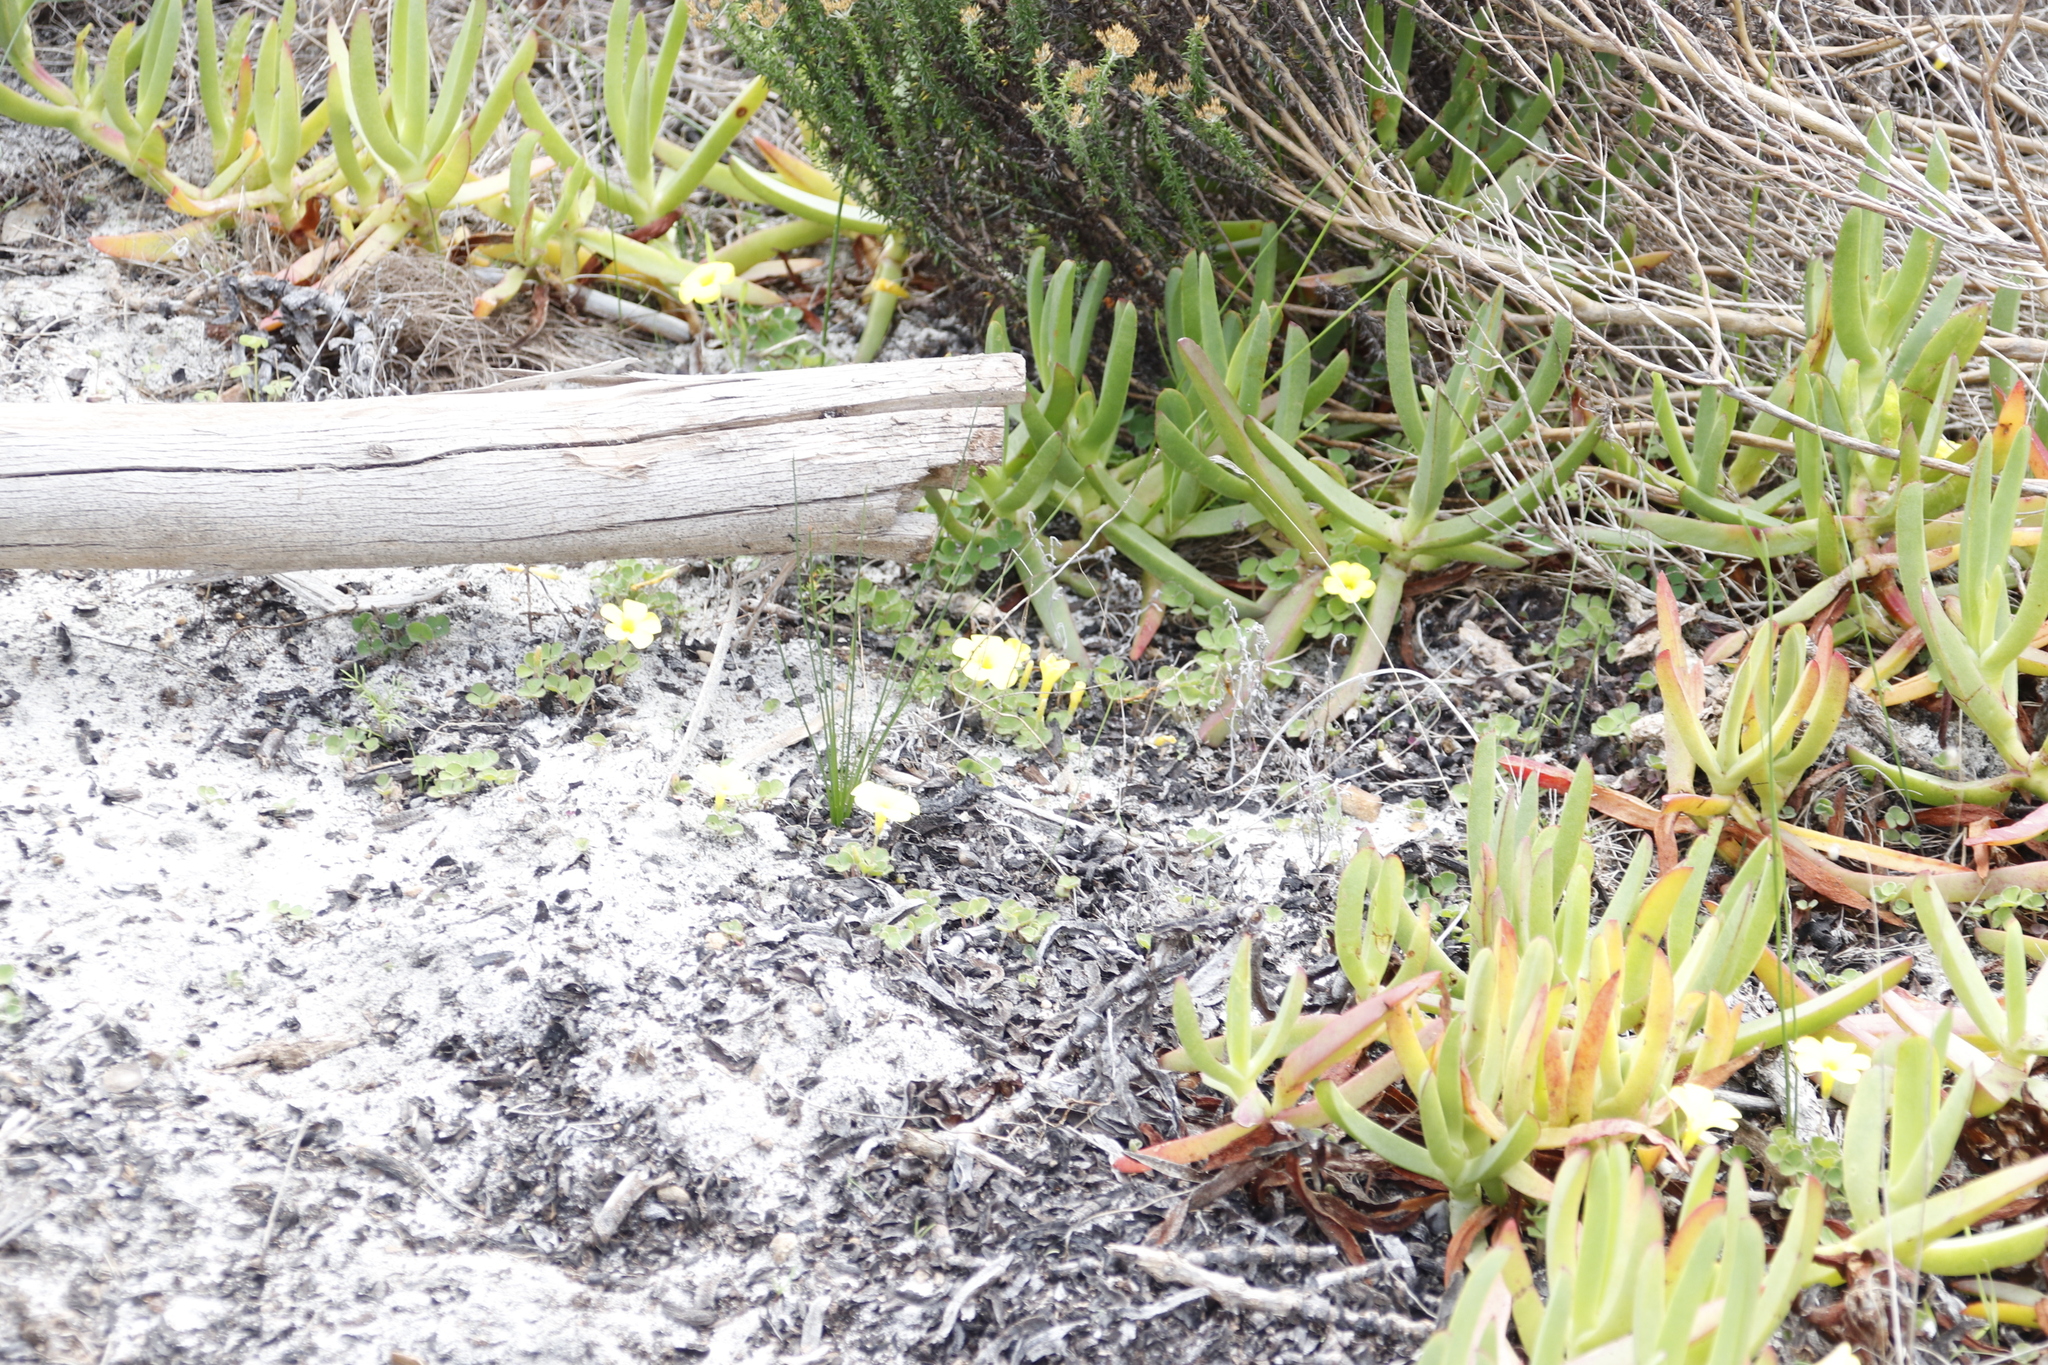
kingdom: Plantae
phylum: Tracheophyta
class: Magnoliopsida
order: Oxalidales
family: Oxalidaceae
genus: Oxalis
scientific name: Oxalis luteola
